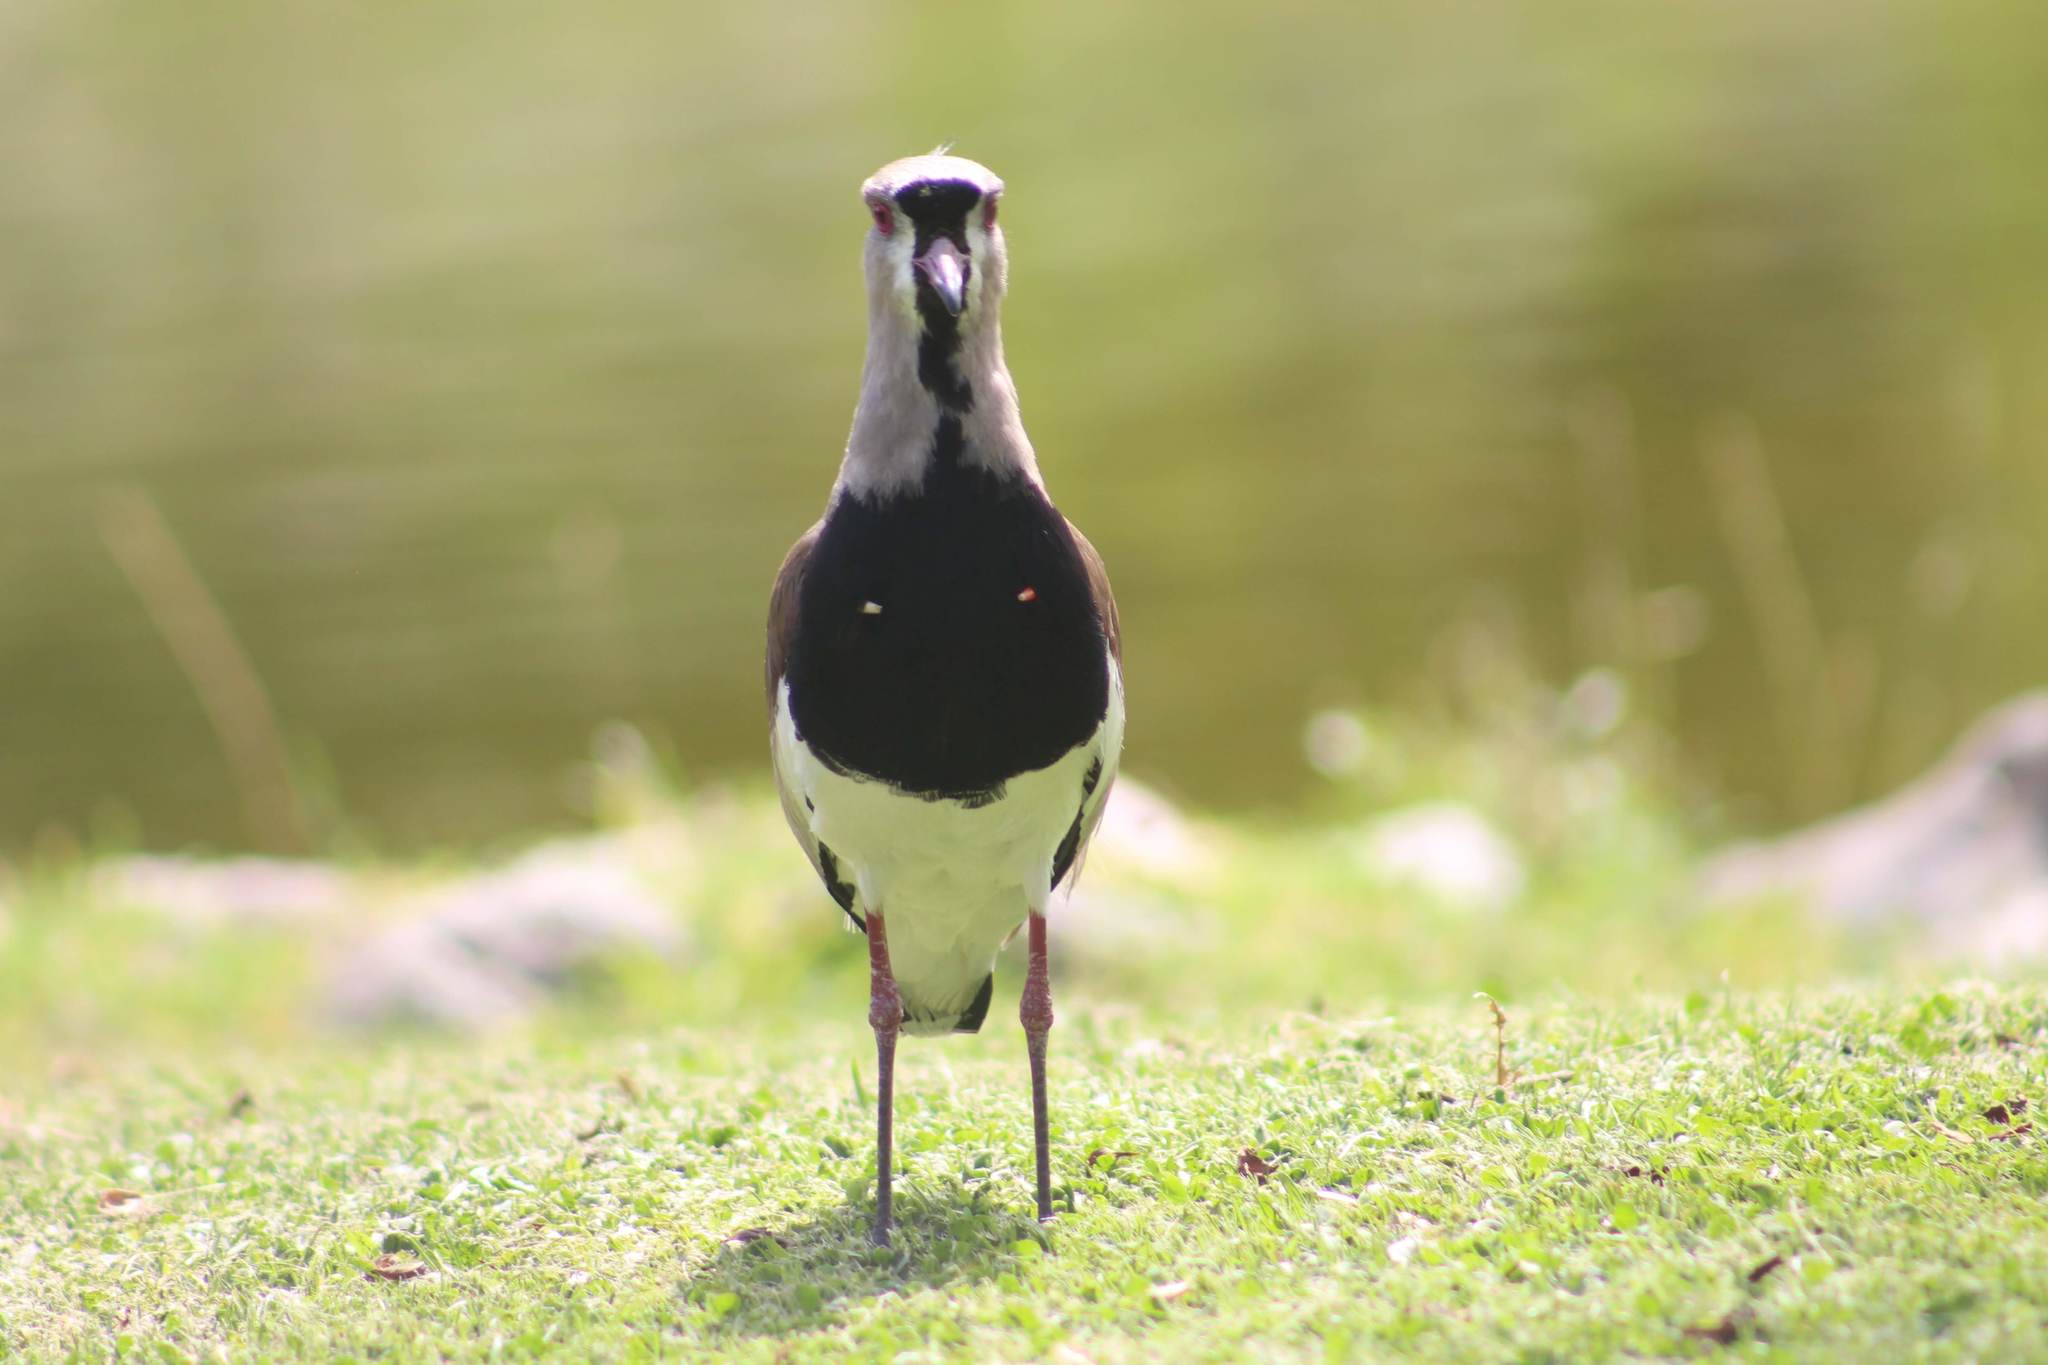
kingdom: Animalia
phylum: Chordata
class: Aves
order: Charadriiformes
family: Charadriidae
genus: Vanellus
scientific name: Vanellus chilensis
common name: Southern lapwing
